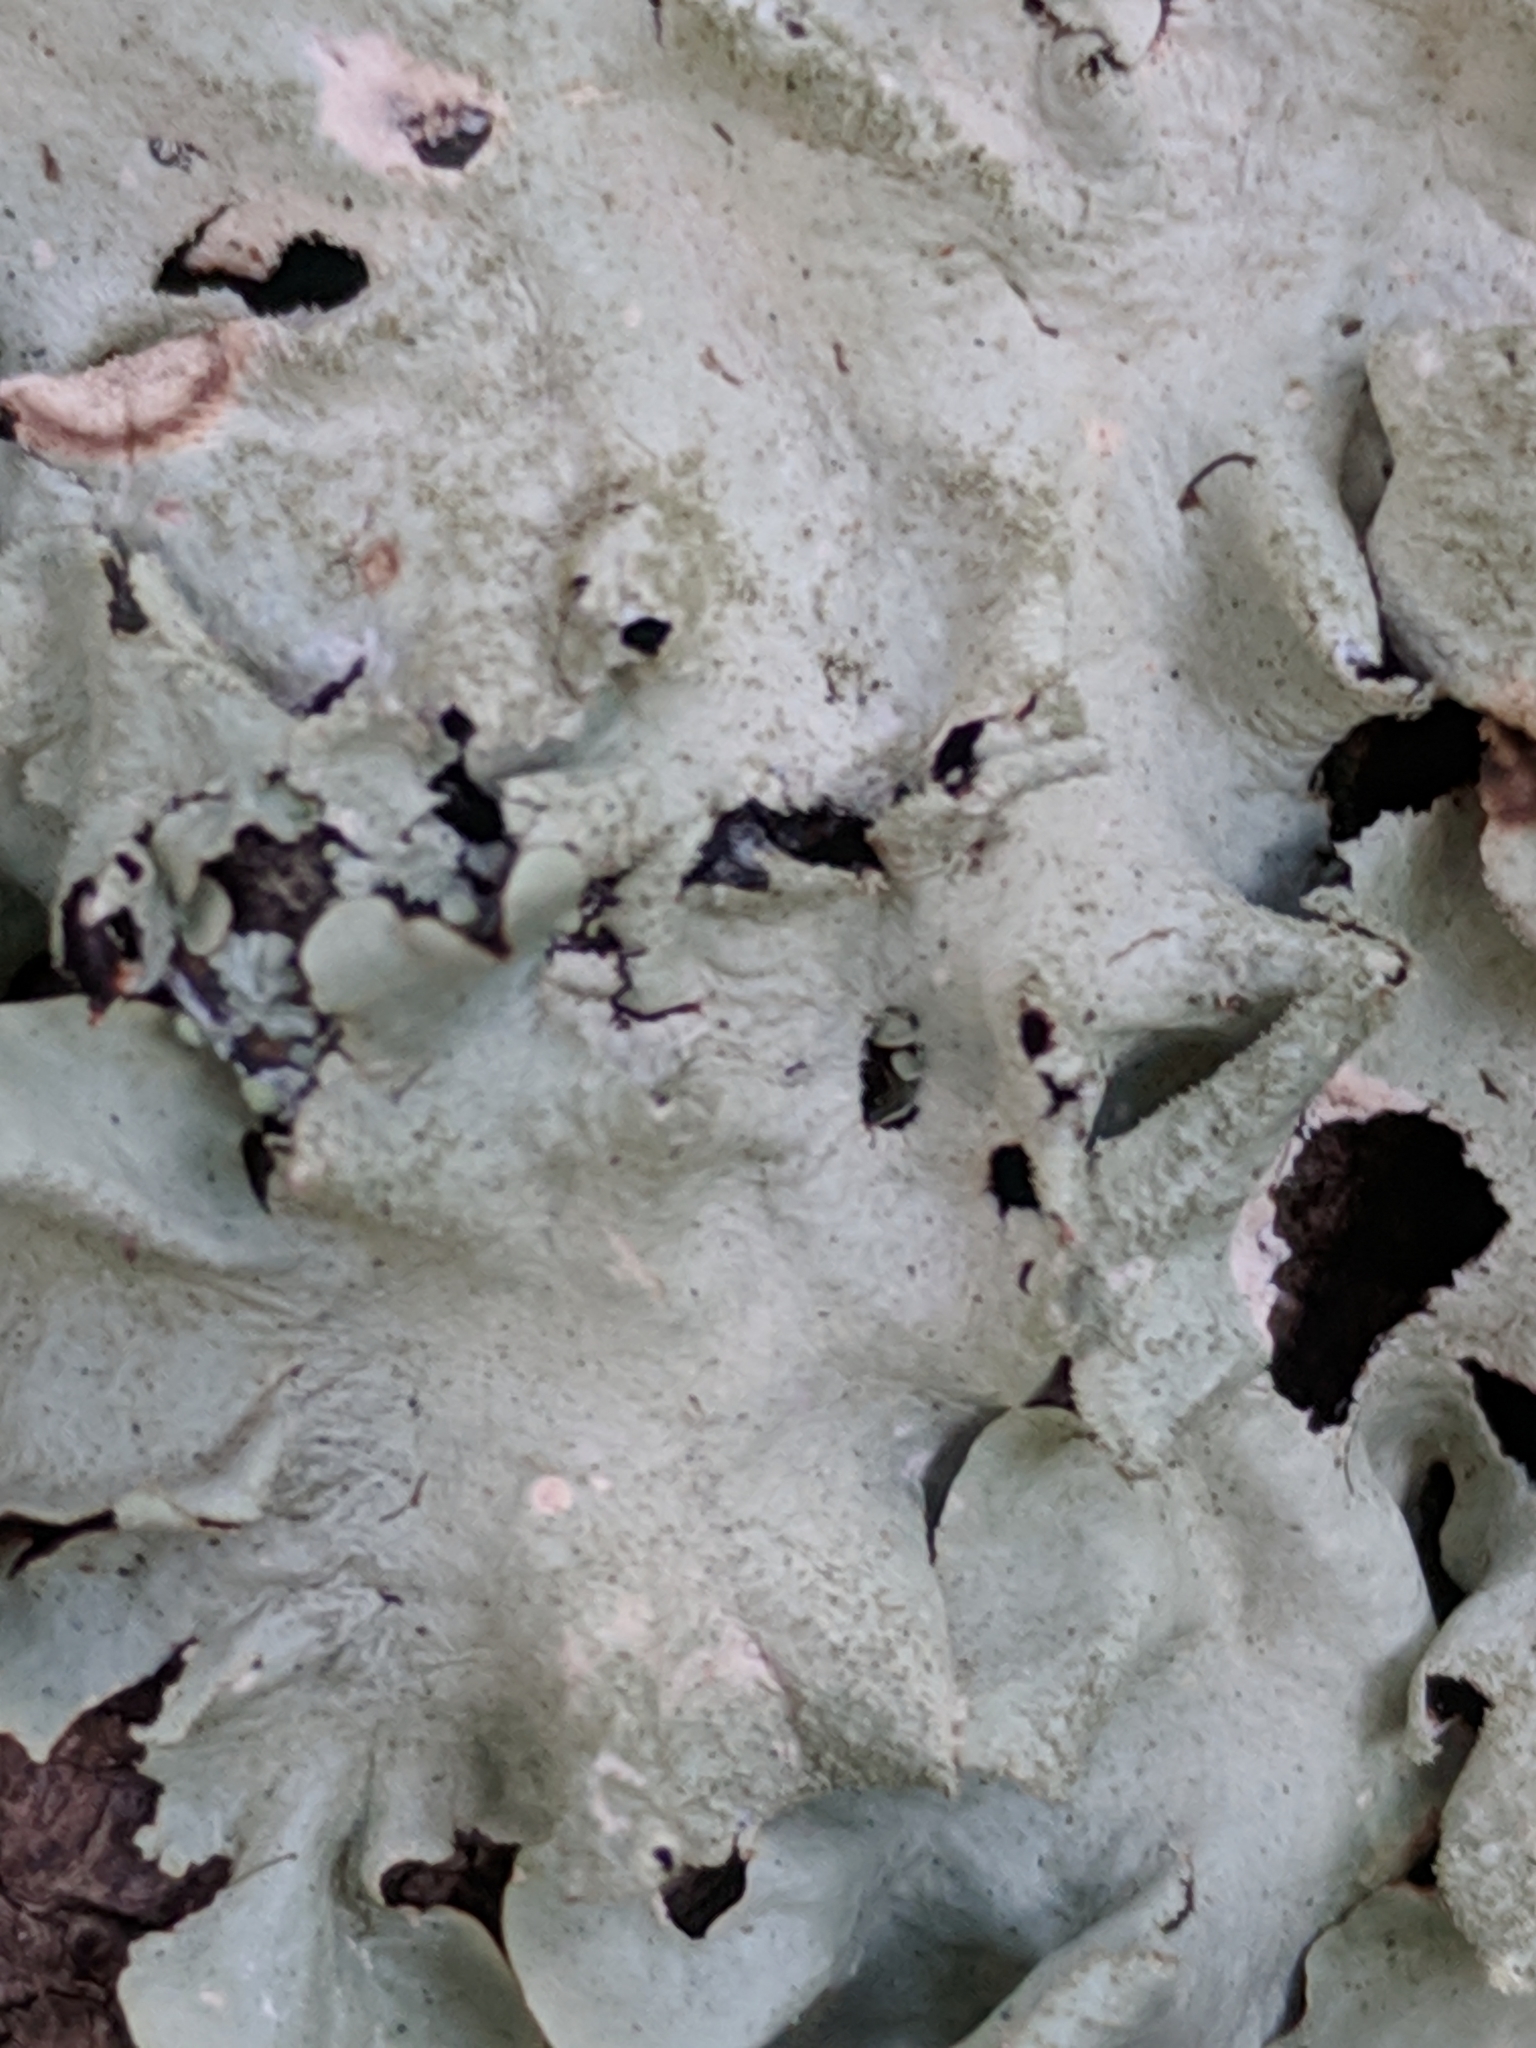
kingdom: Fungi
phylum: Ascomycota
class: Lecanoromycetes
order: Lecanorales
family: Parmeliaceae
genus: Parmotrema
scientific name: Parmotrema tinctorum
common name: Old gray ruffles
